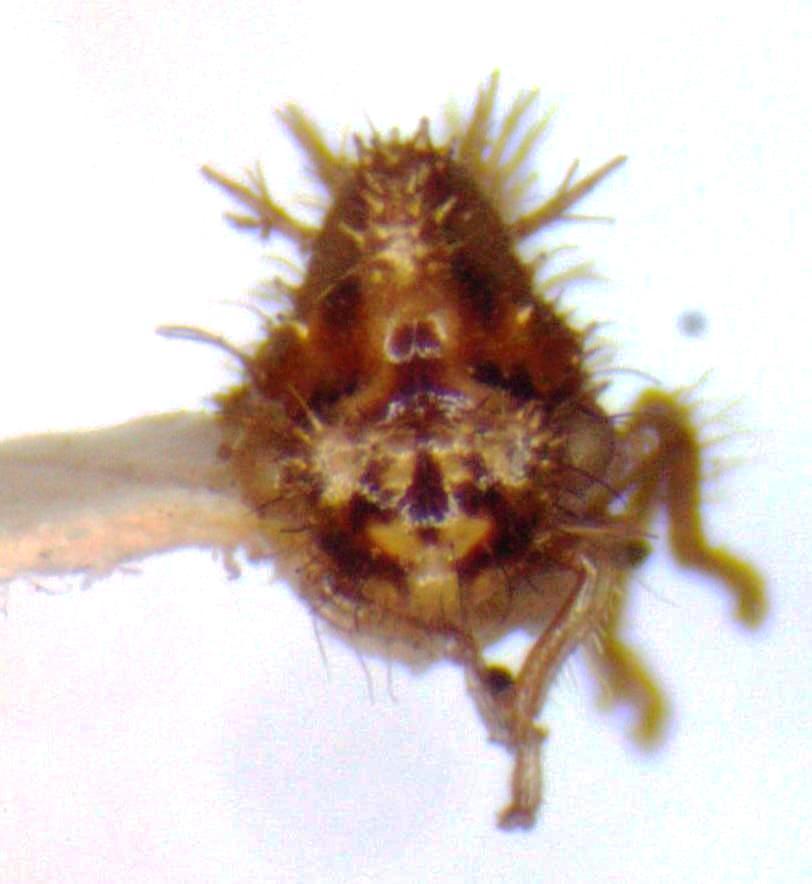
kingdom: Animalia
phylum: Arthropoda
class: Insecta
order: Hemiptera
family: Membracidae
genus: Entylia
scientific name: Entylia carinata
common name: Keeled treehopper
